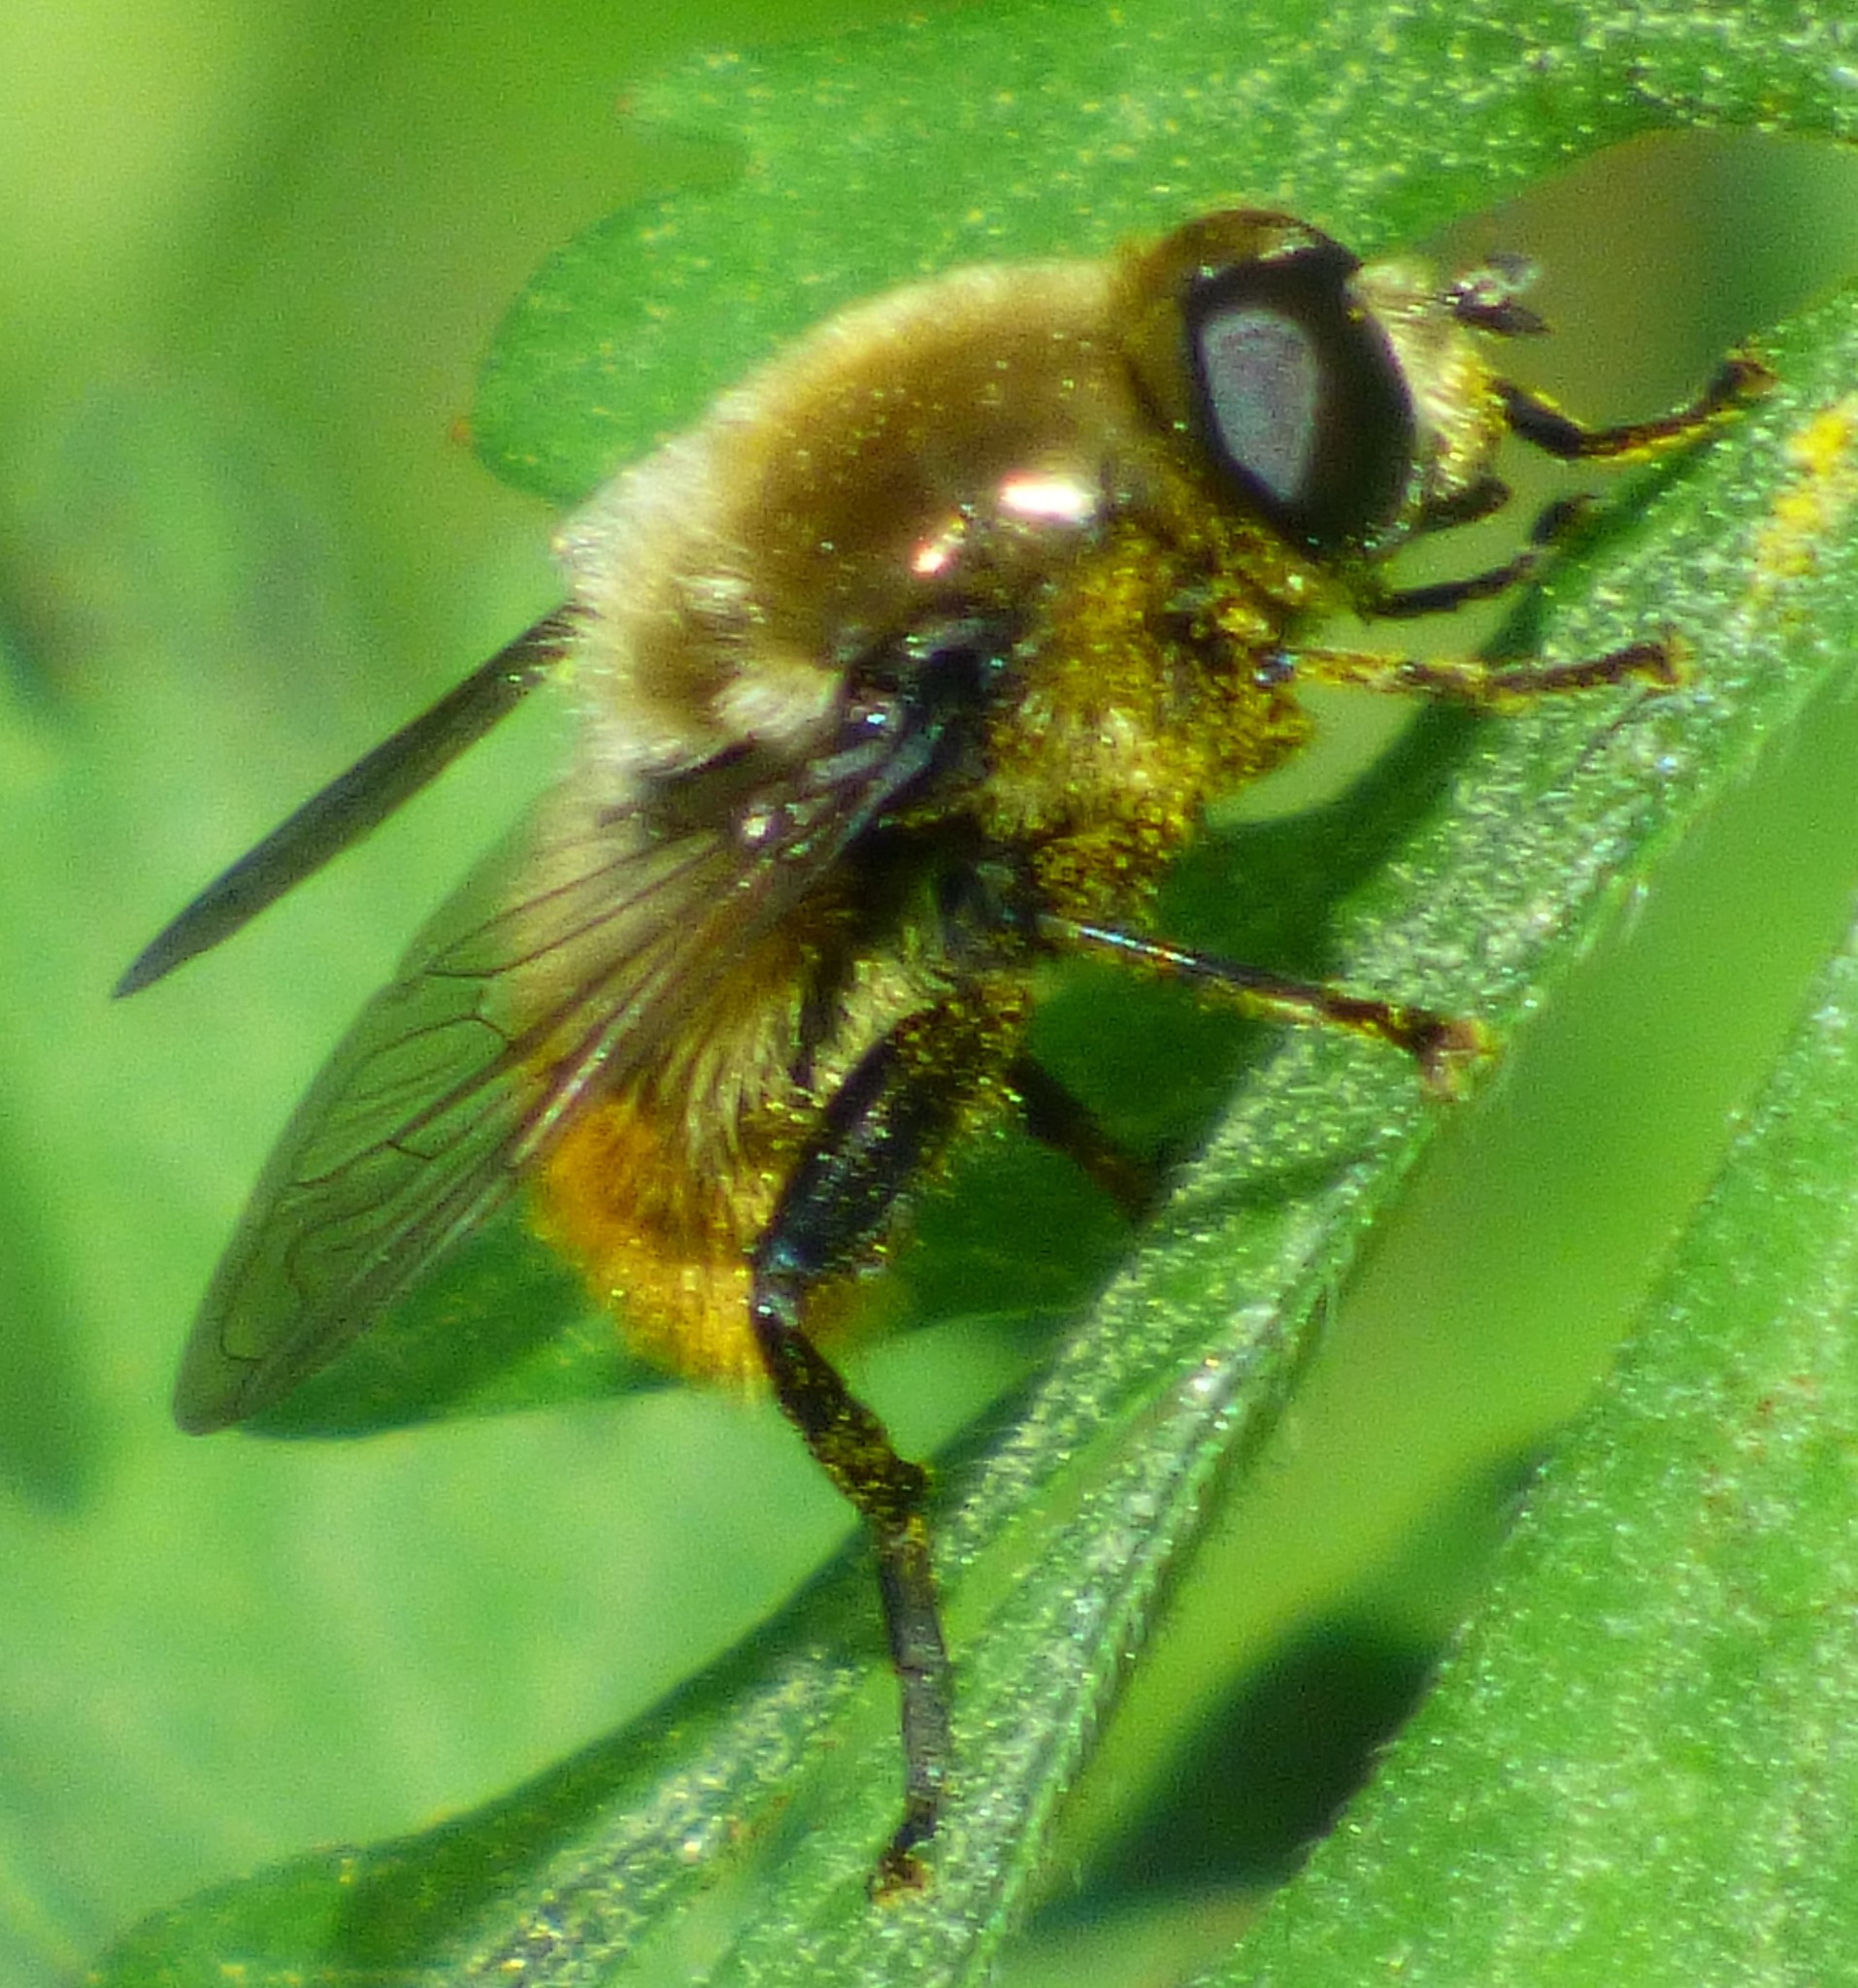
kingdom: Animalia
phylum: Arthropoda
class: Insecta
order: Diptera
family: Syrphidae
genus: Merodon
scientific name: Merodon equestris
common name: Greater bulb-fly
